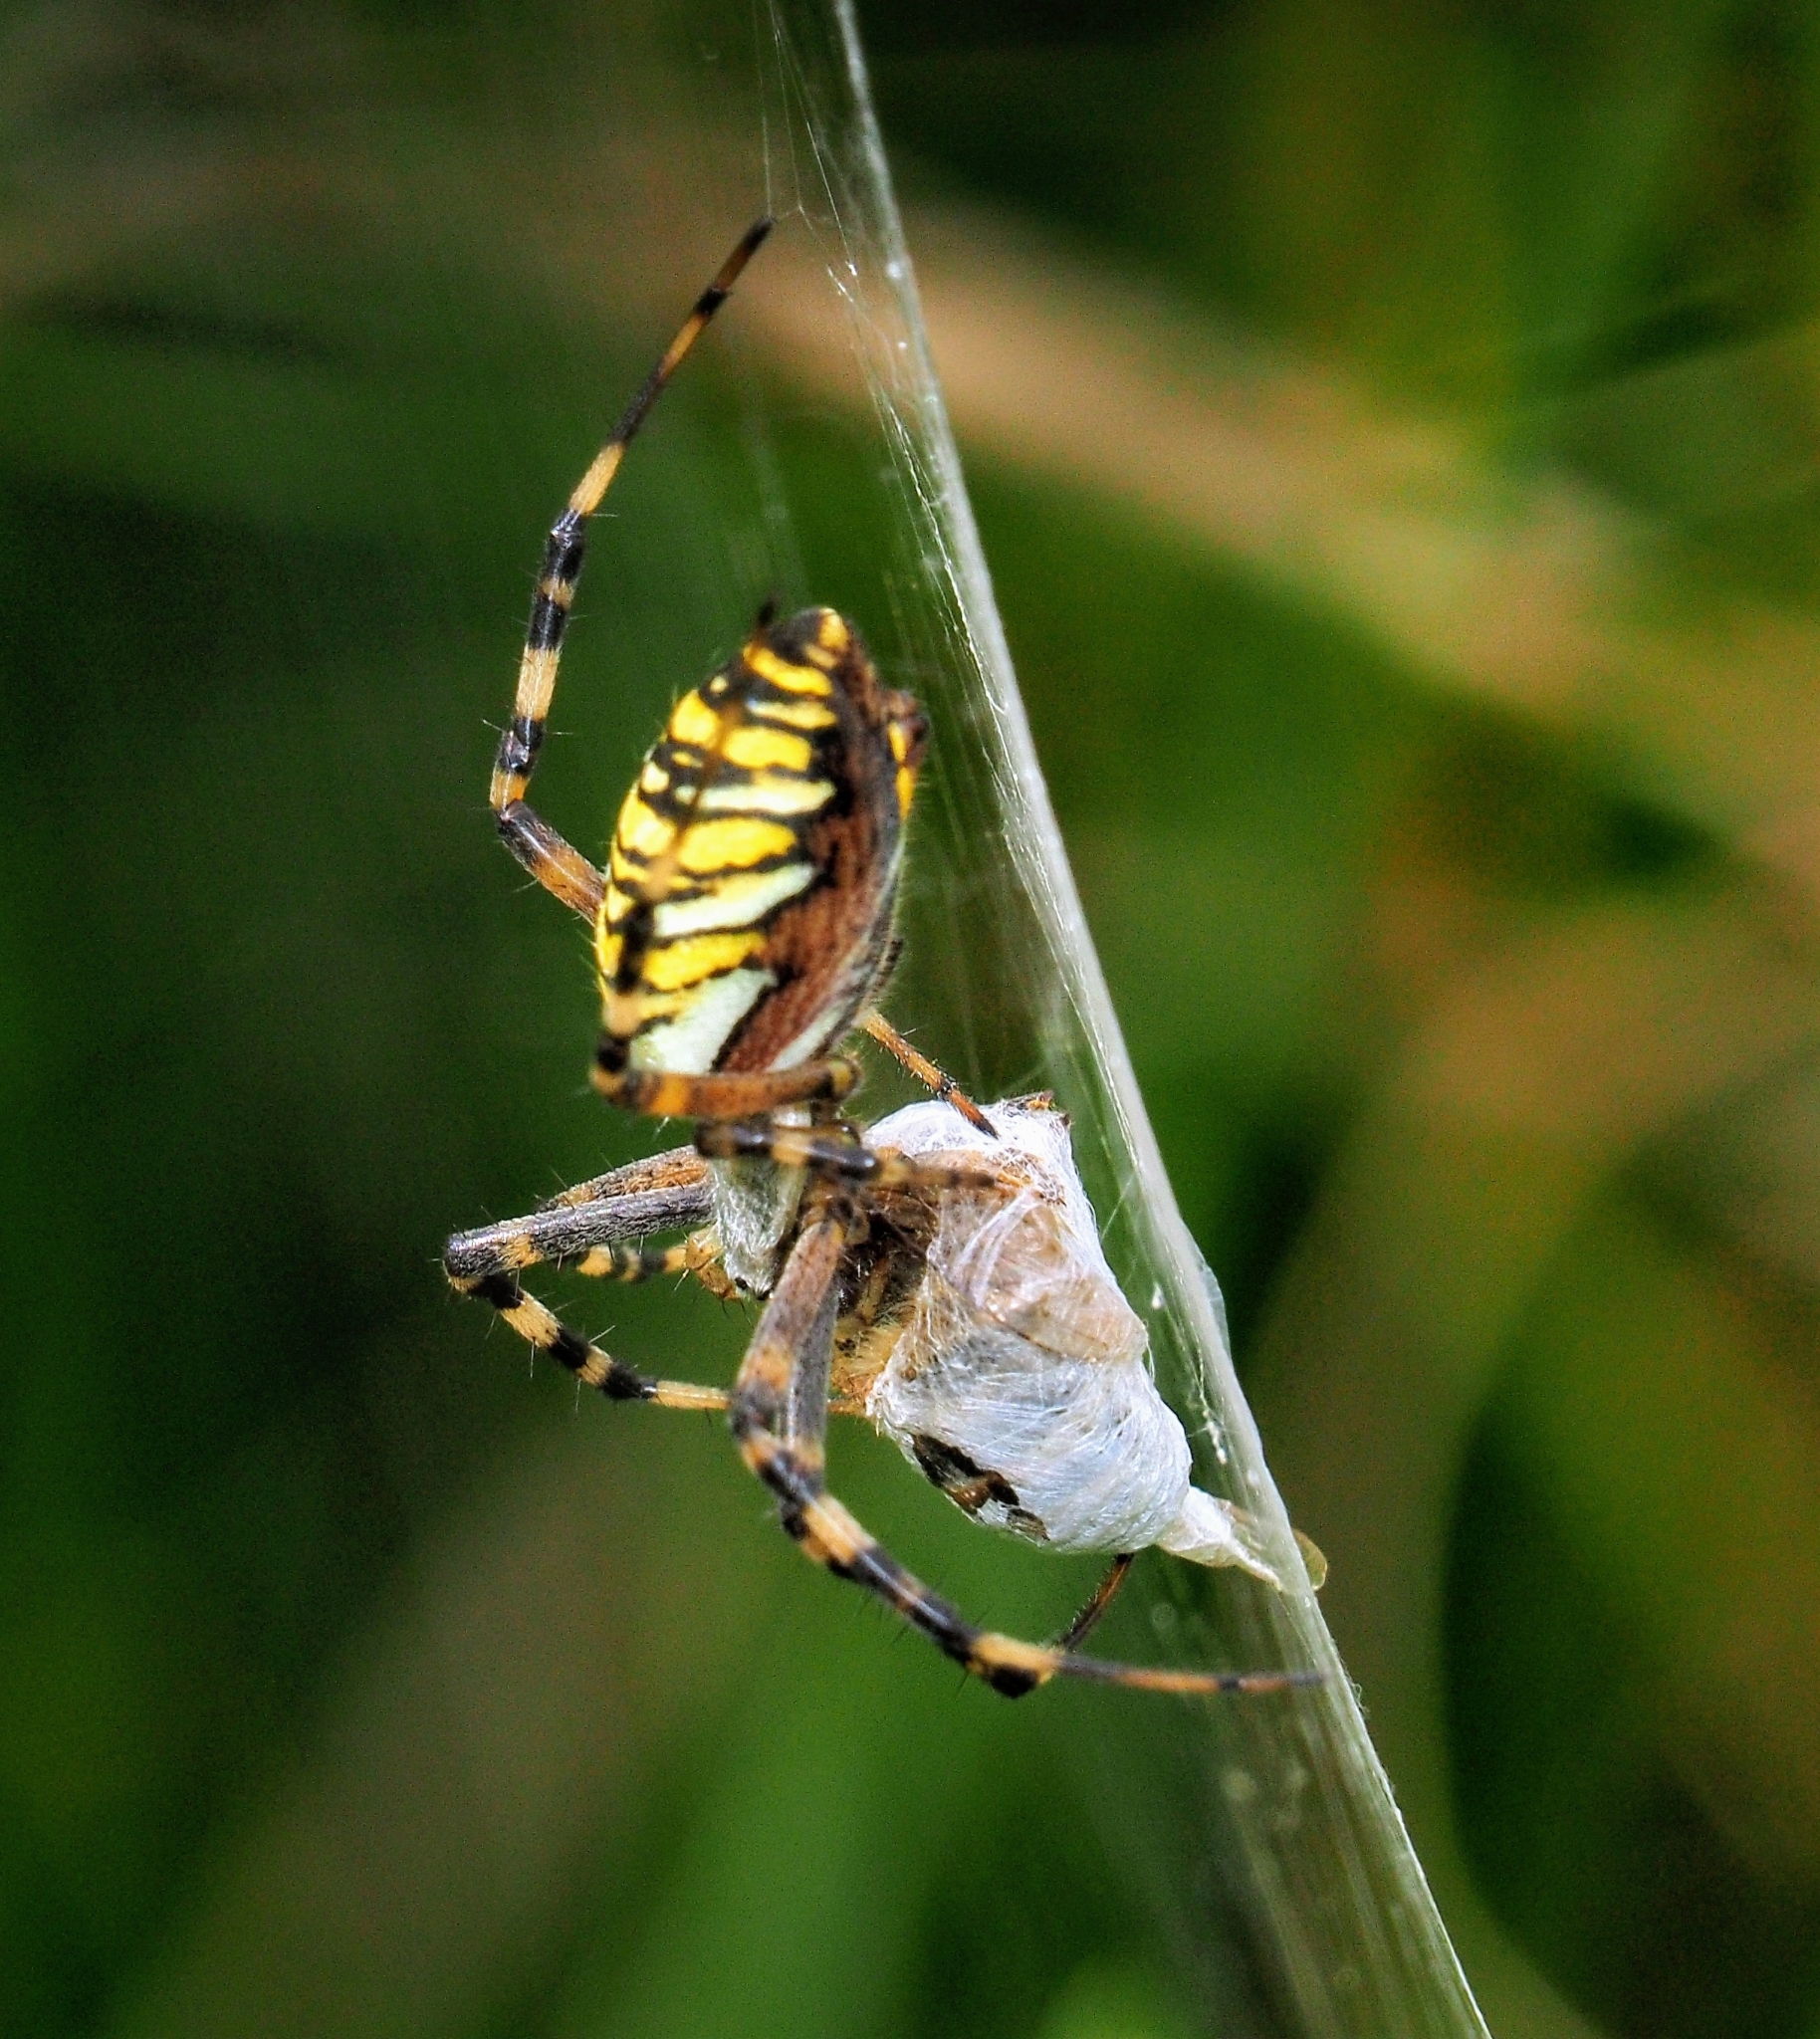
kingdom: Animalia
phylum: Arthropoda
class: Arachnida
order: Araneae
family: Araneidae
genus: Argiope
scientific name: Argiope bruennichi
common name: Wasp spider
